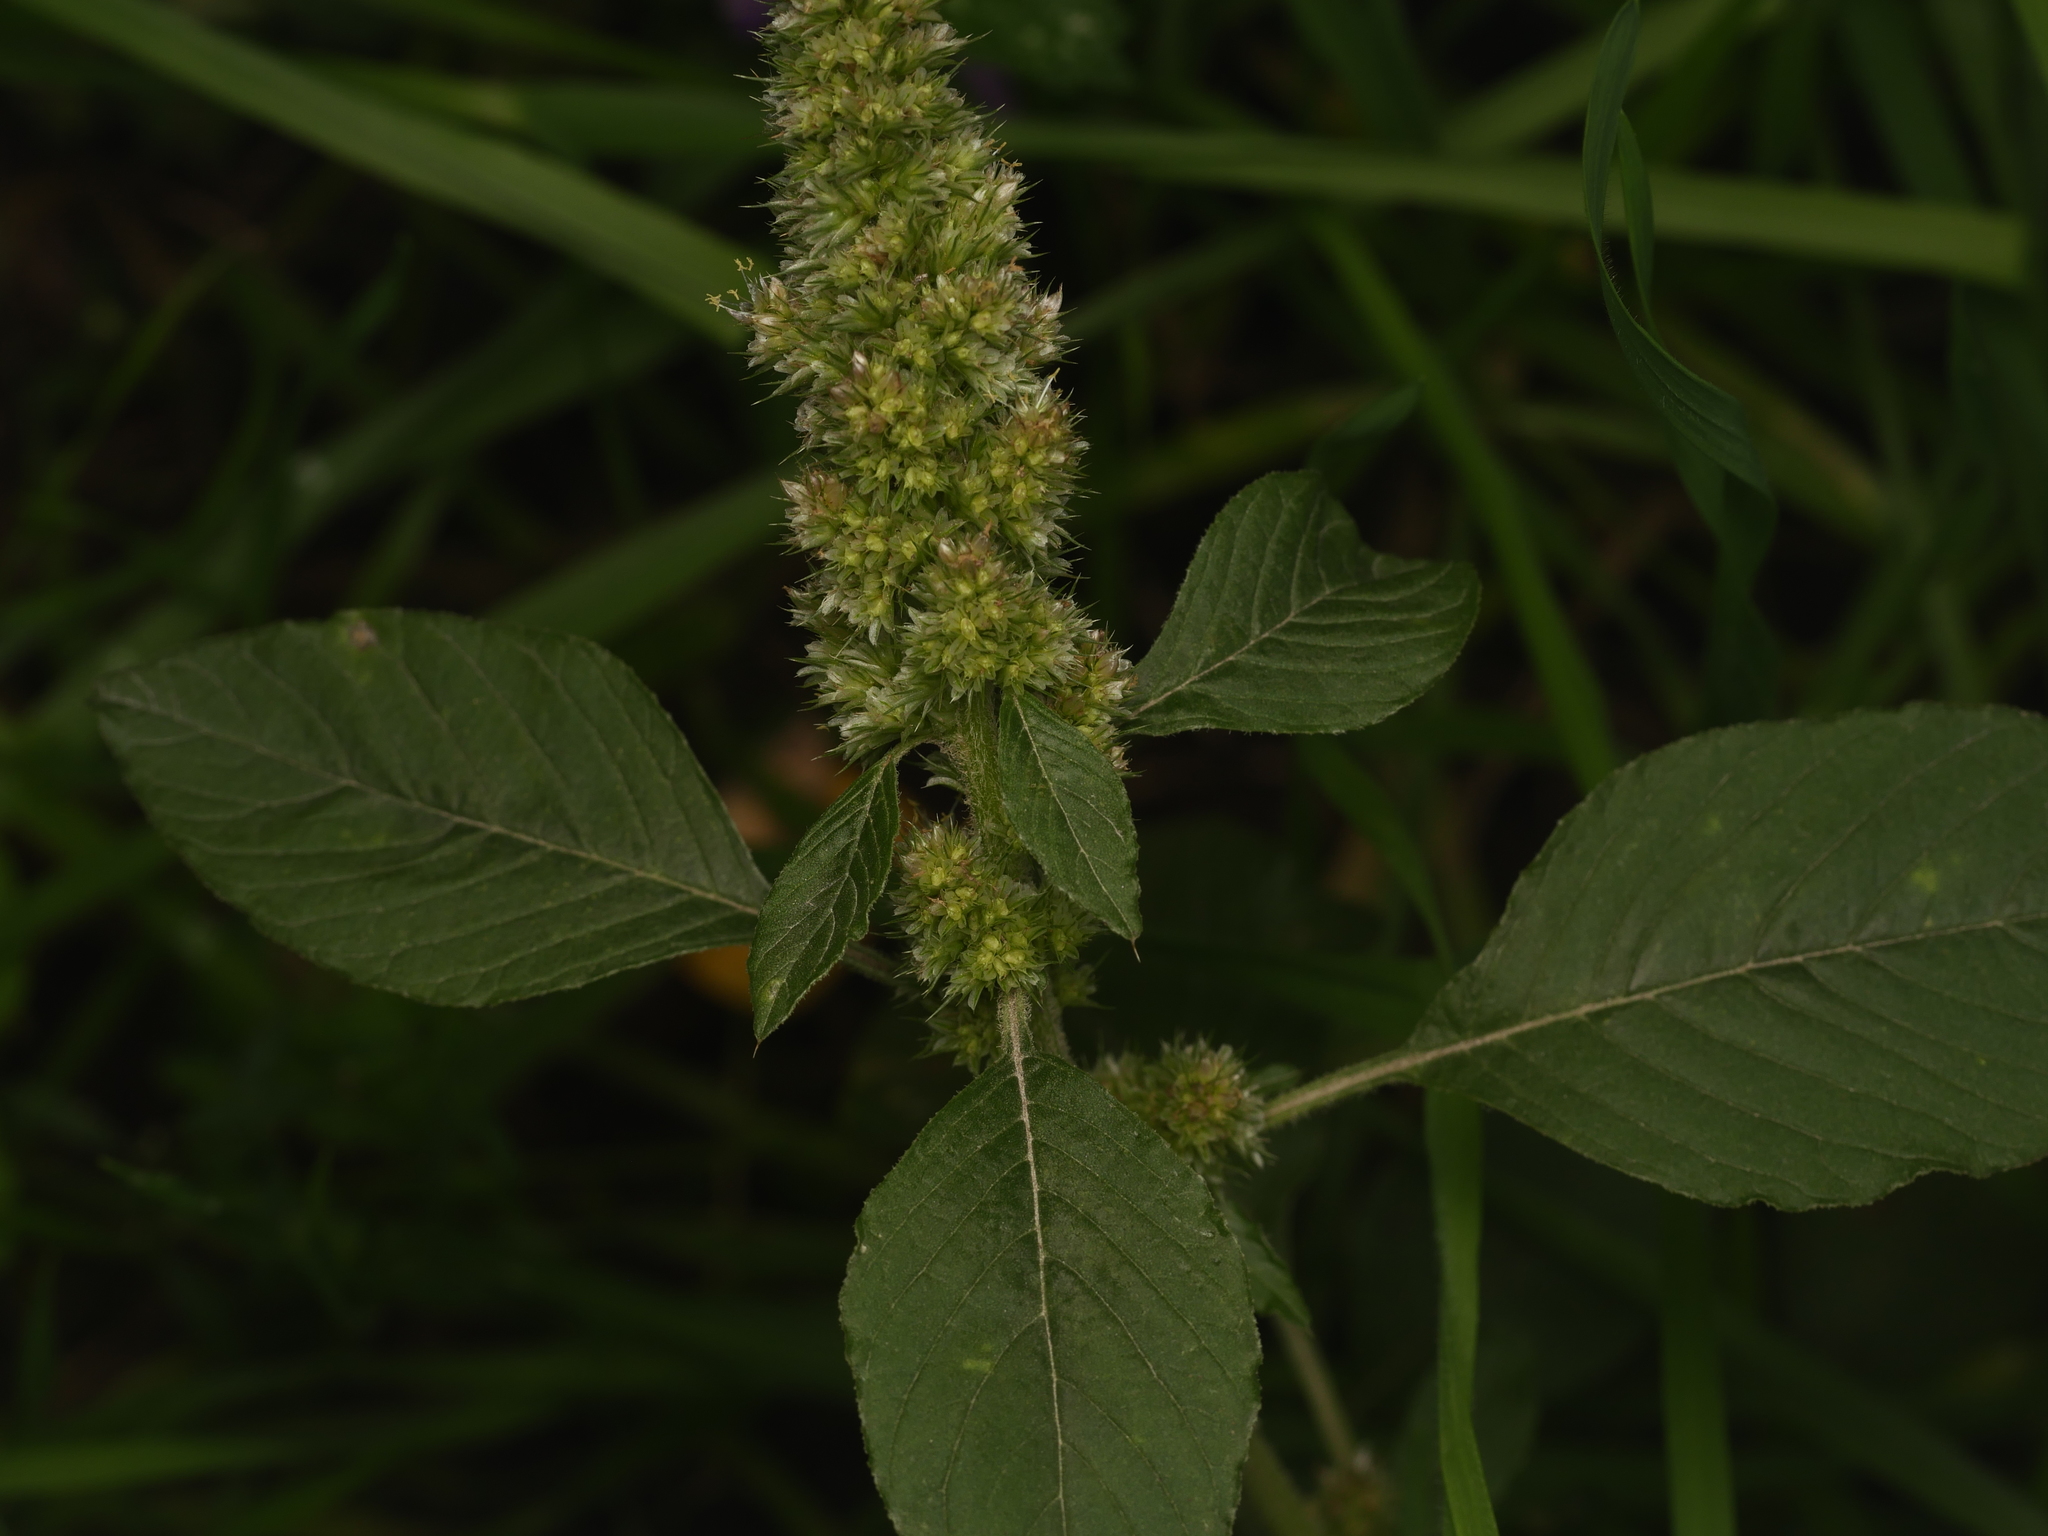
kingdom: Plantae
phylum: Tracheophyta
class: Magnoliopsida
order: Caryophyllales
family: Amaranthaceae
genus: Amaranthus
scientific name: Amaranthus retroflexus
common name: Redroot amaranth
